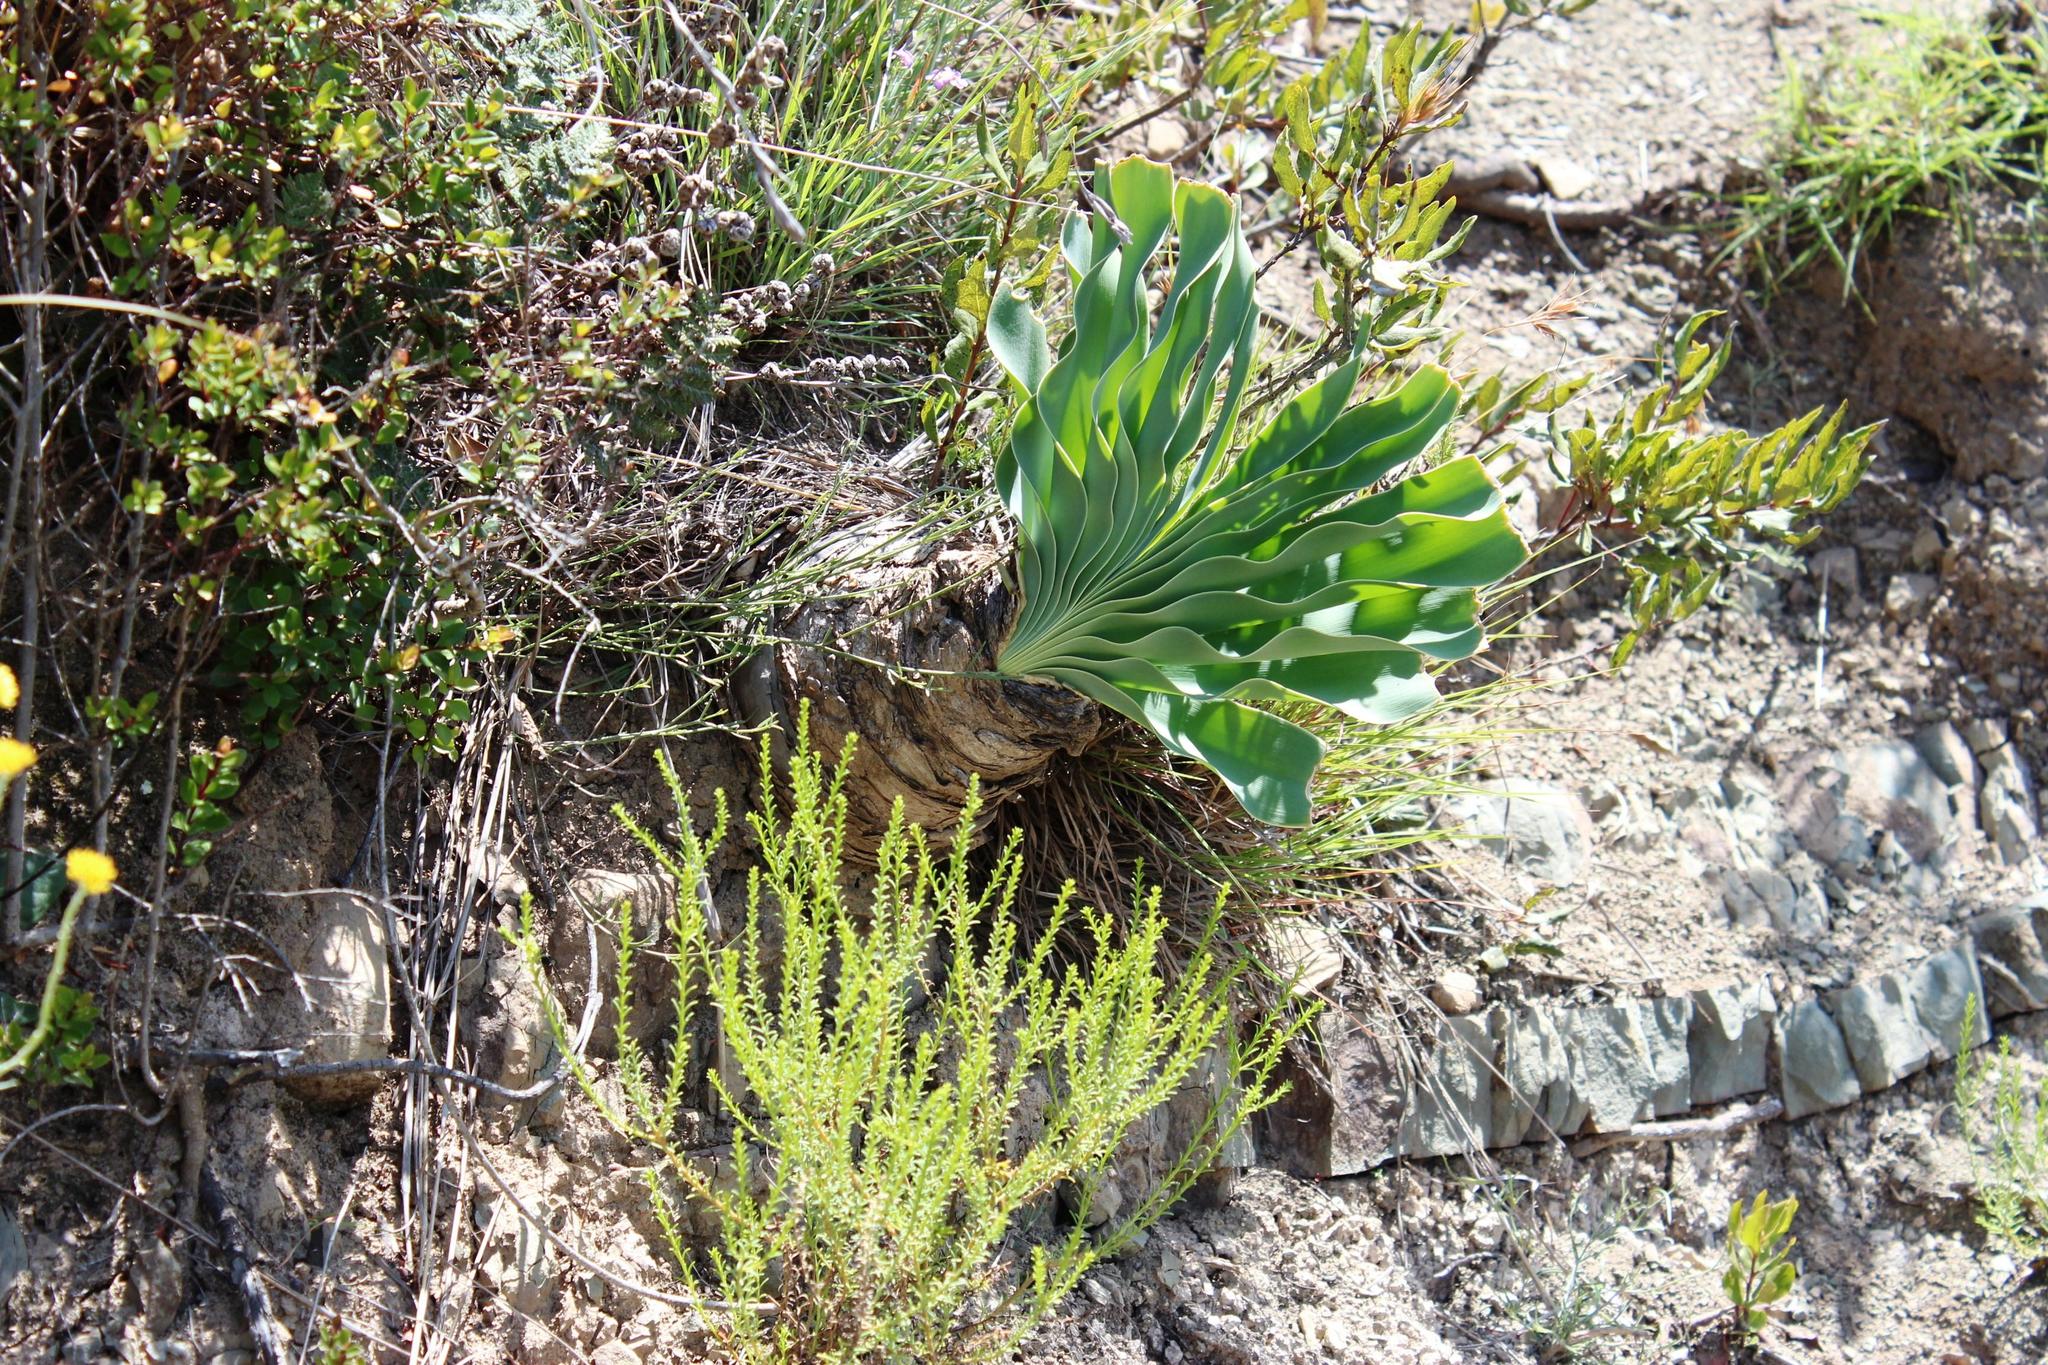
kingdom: Plantae
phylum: Tracheophyta
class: Liliopsida
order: Asparagales
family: Amaryllidaceae
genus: Boophone
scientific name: Boophone disticha
